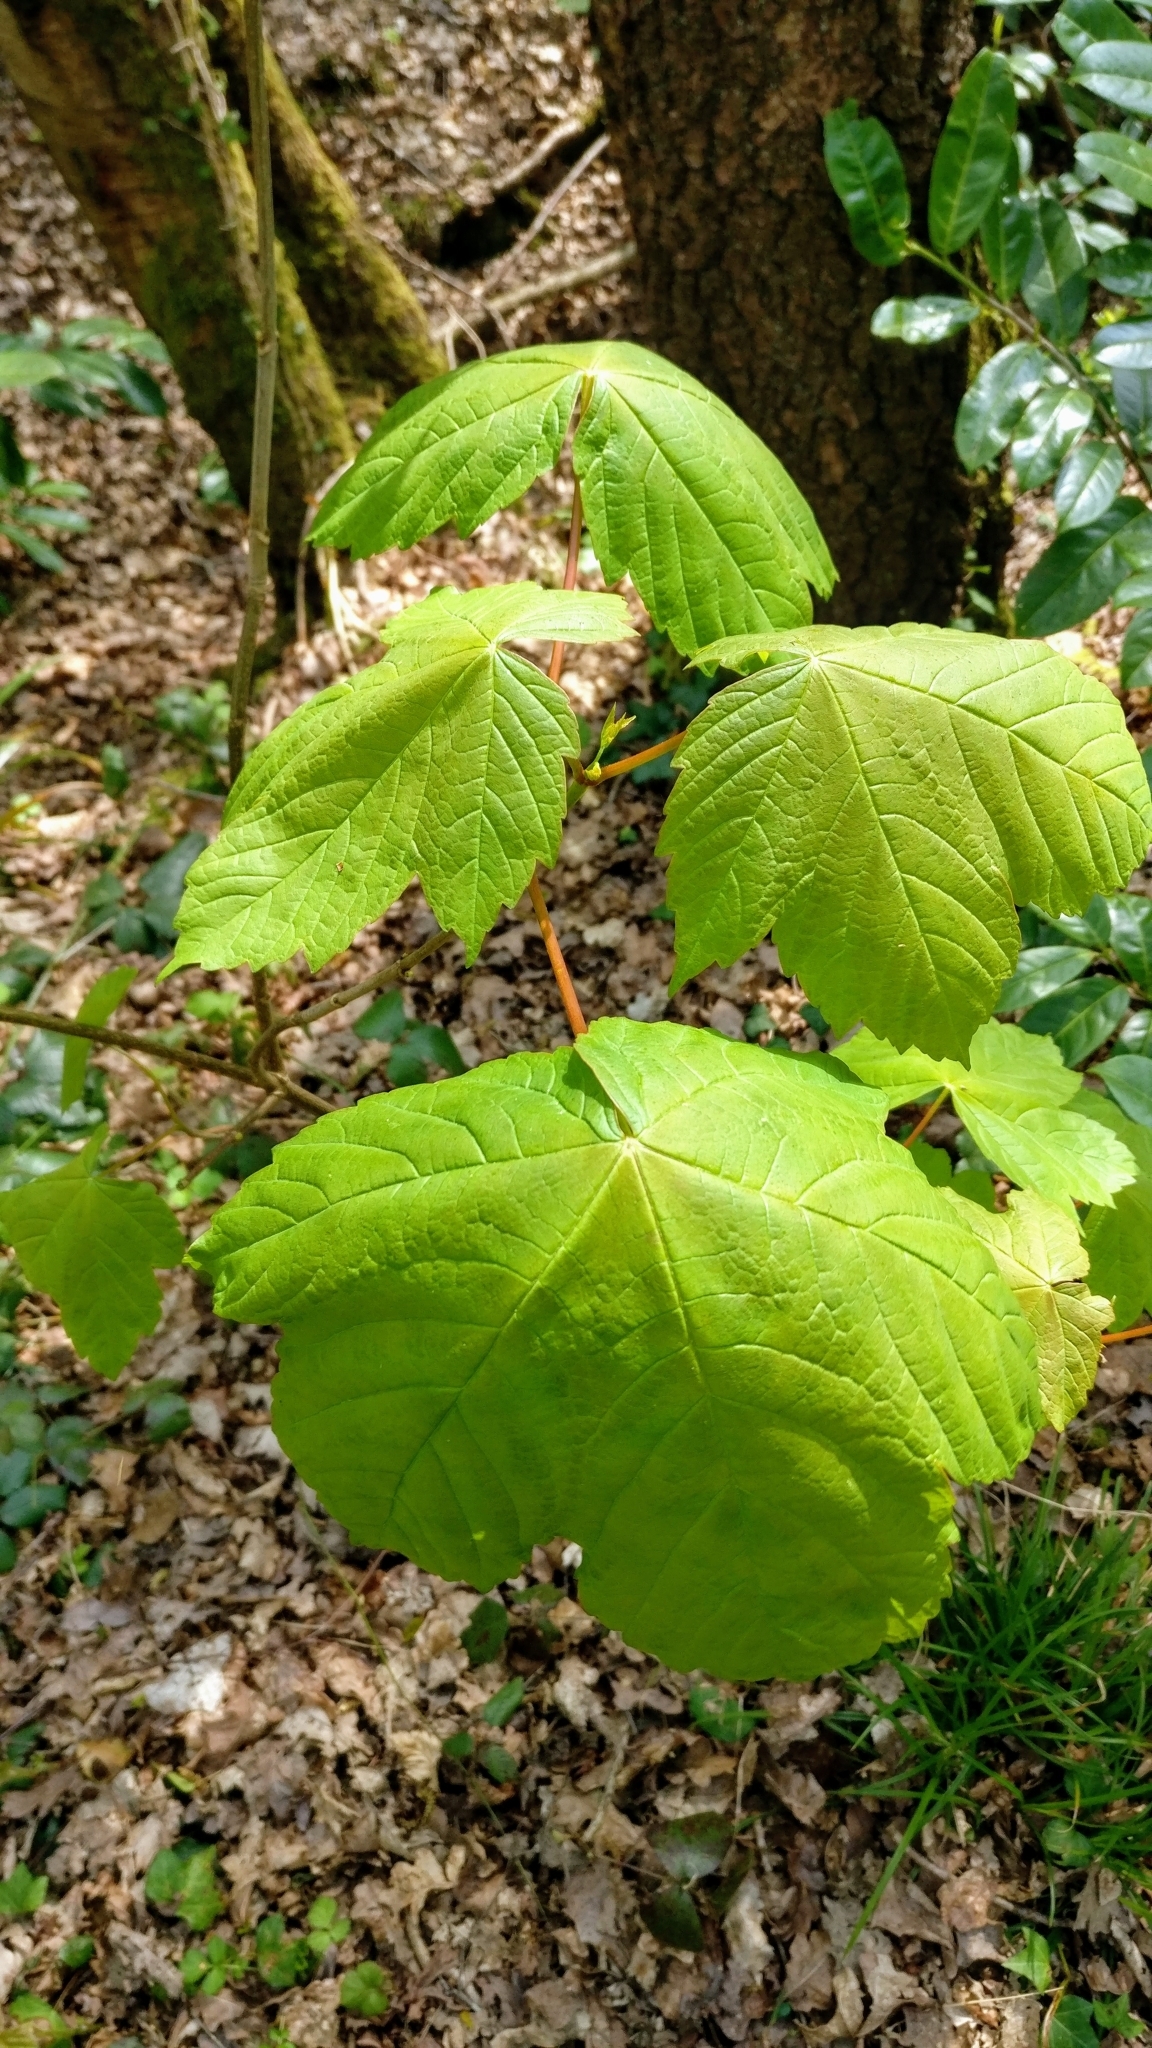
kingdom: Plantae
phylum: Tracheophyta
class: Magnoliopsida
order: Sapindales
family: Sapindaceae
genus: Acer
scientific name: Acer pseudoplatanus
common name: Sycamore
